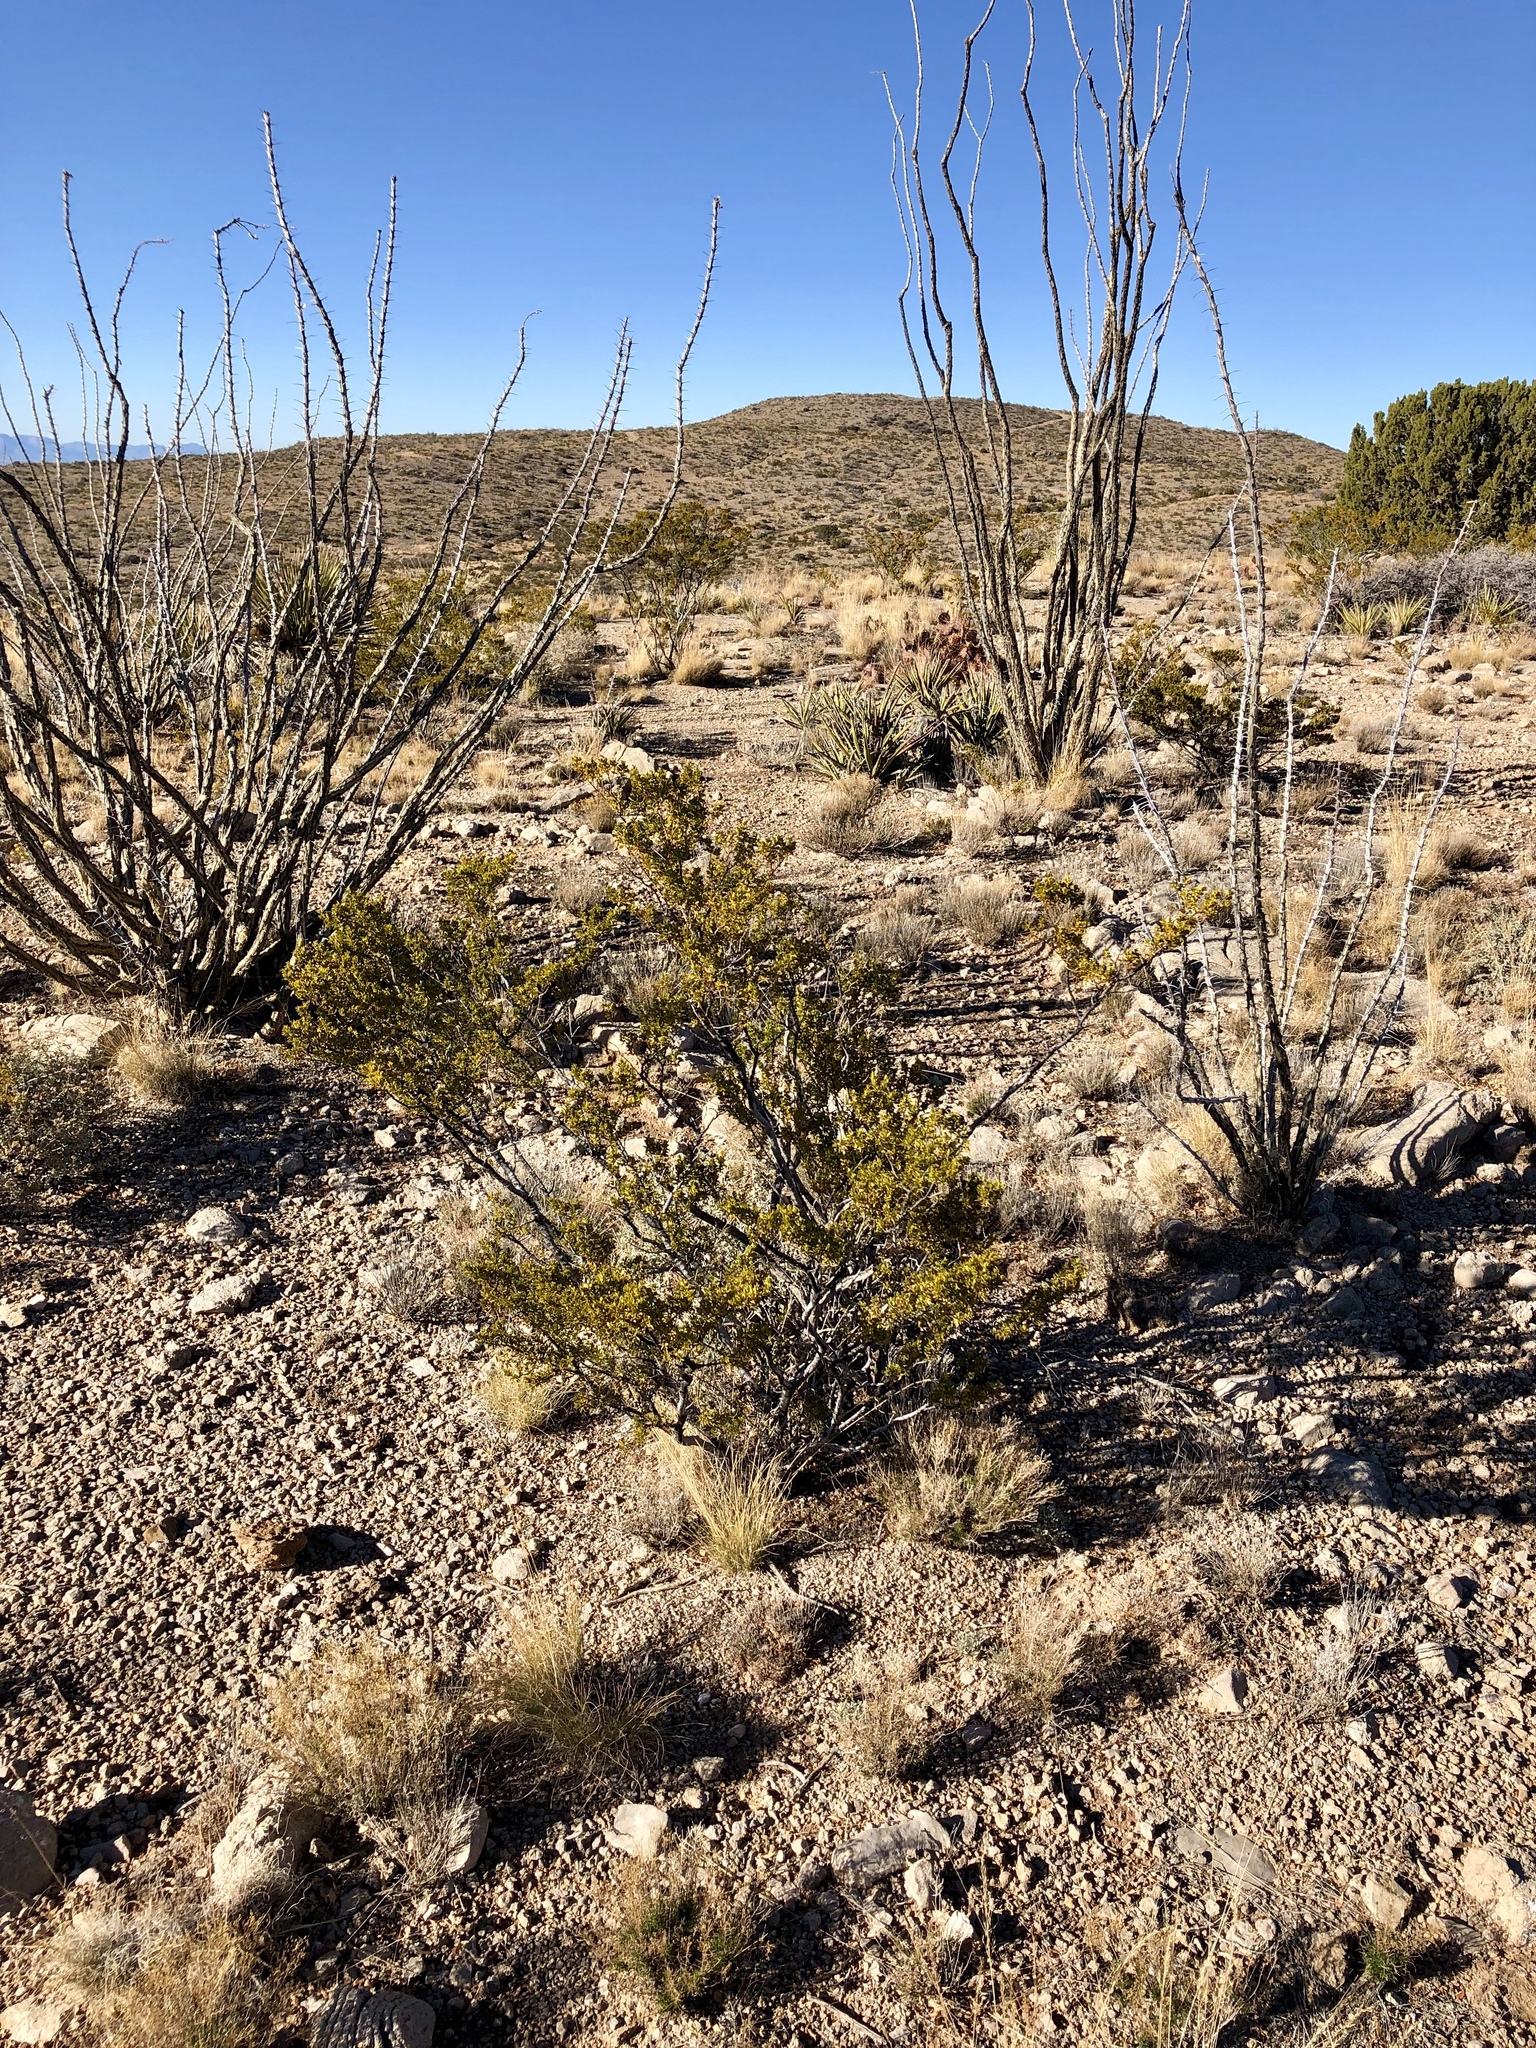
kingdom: Plantae
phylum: Tracheophyta
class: Magnoliopsida
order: Zygophyllales
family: Zygophyllaceae
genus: Larrea
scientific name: Larrea tridentata
